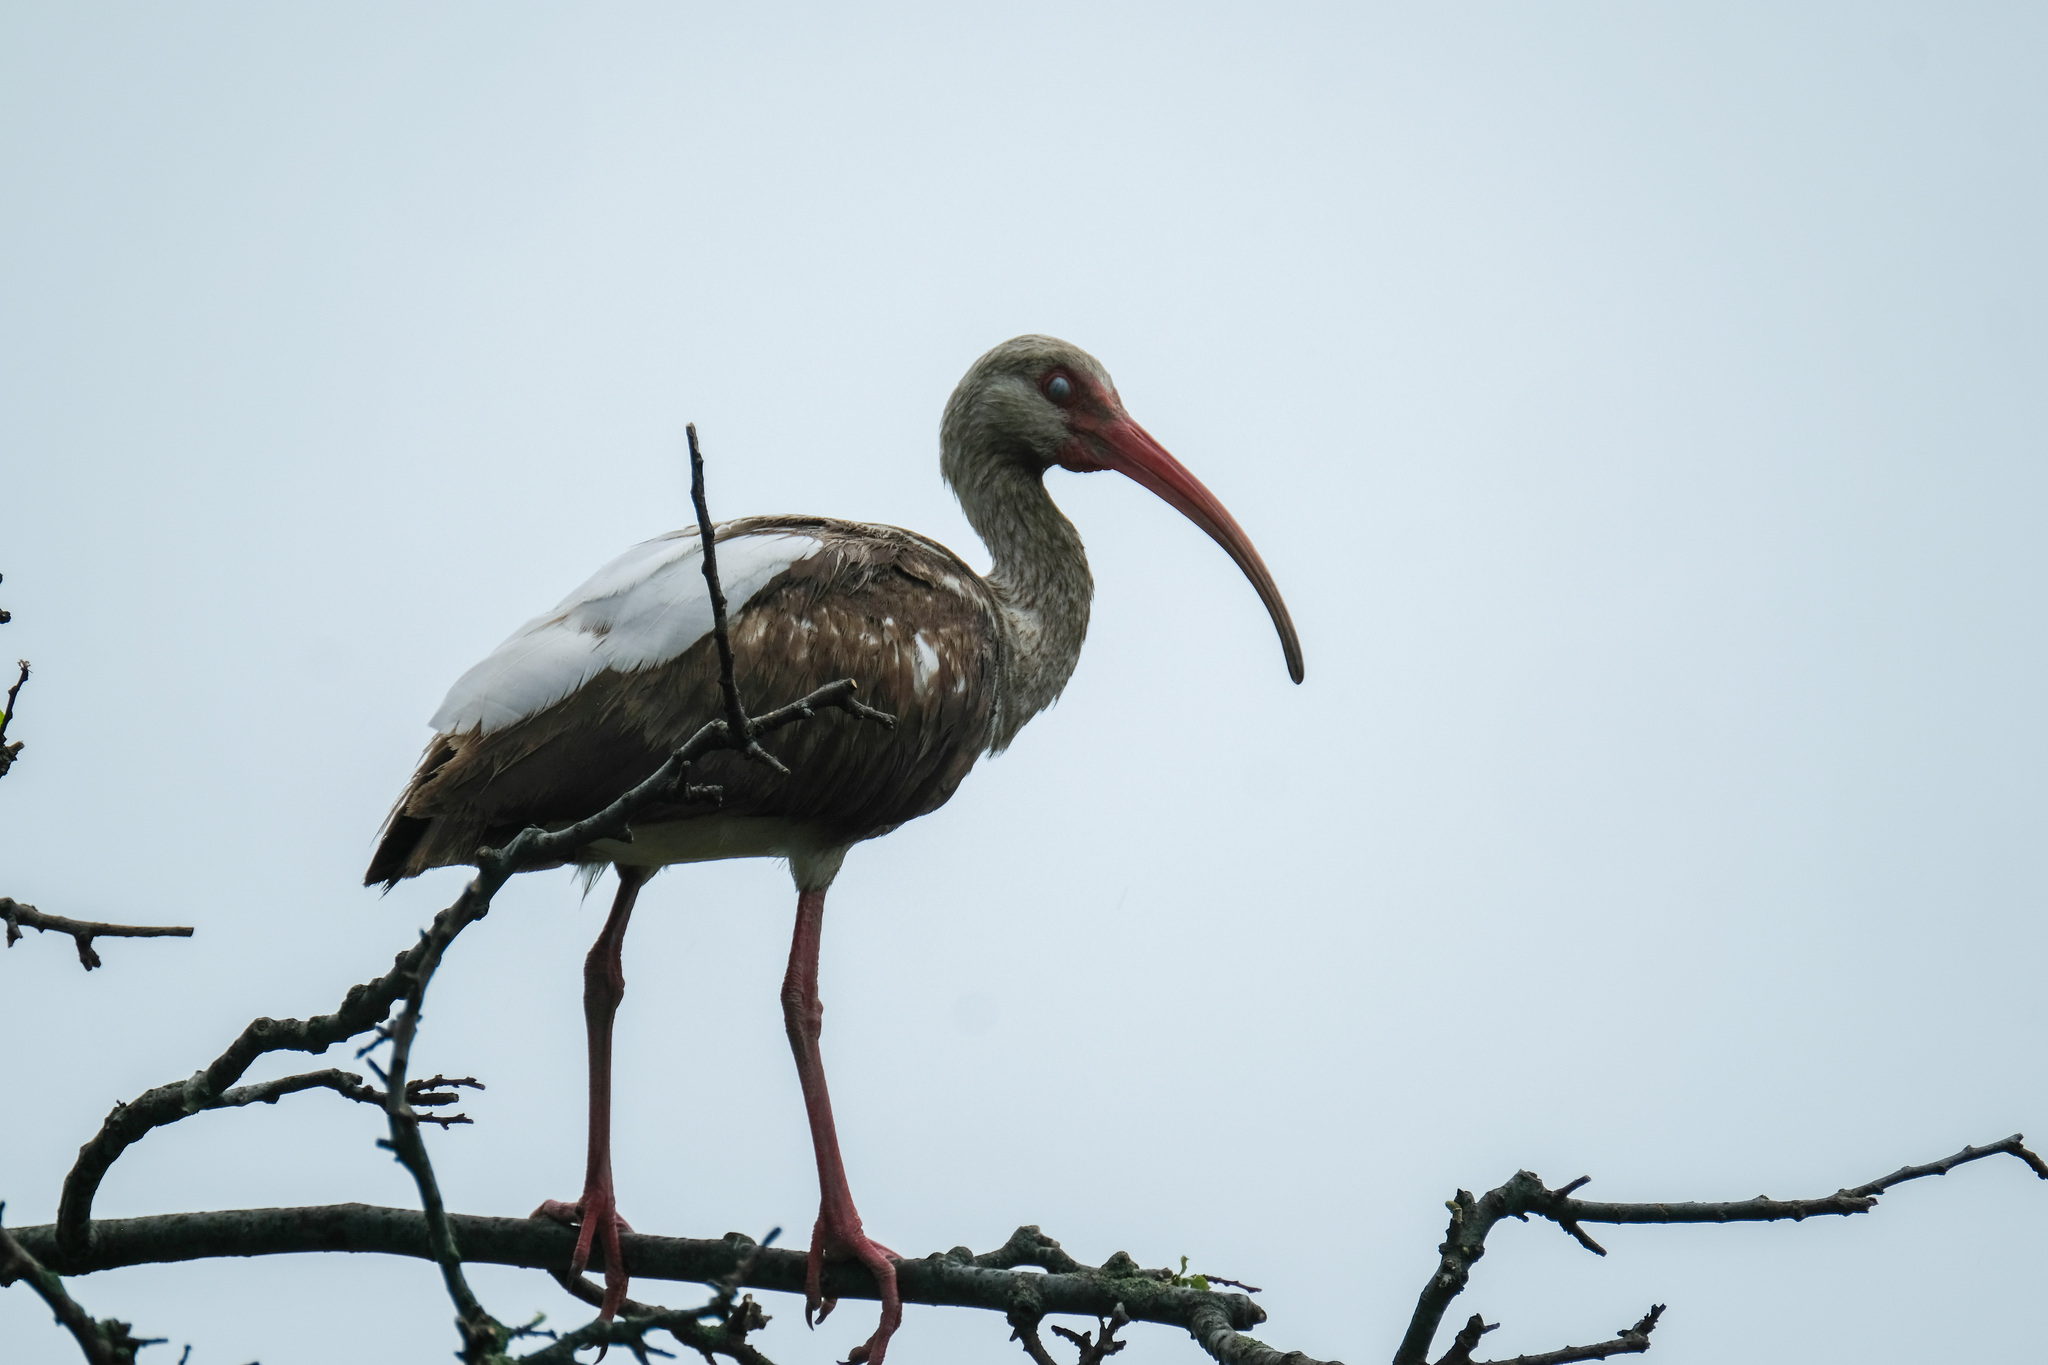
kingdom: Animalia
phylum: Chordata
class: Aves
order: Pelecaniformes
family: Threskiornithidae
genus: Eudocimus
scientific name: Eudocimus albus
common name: White ibis
